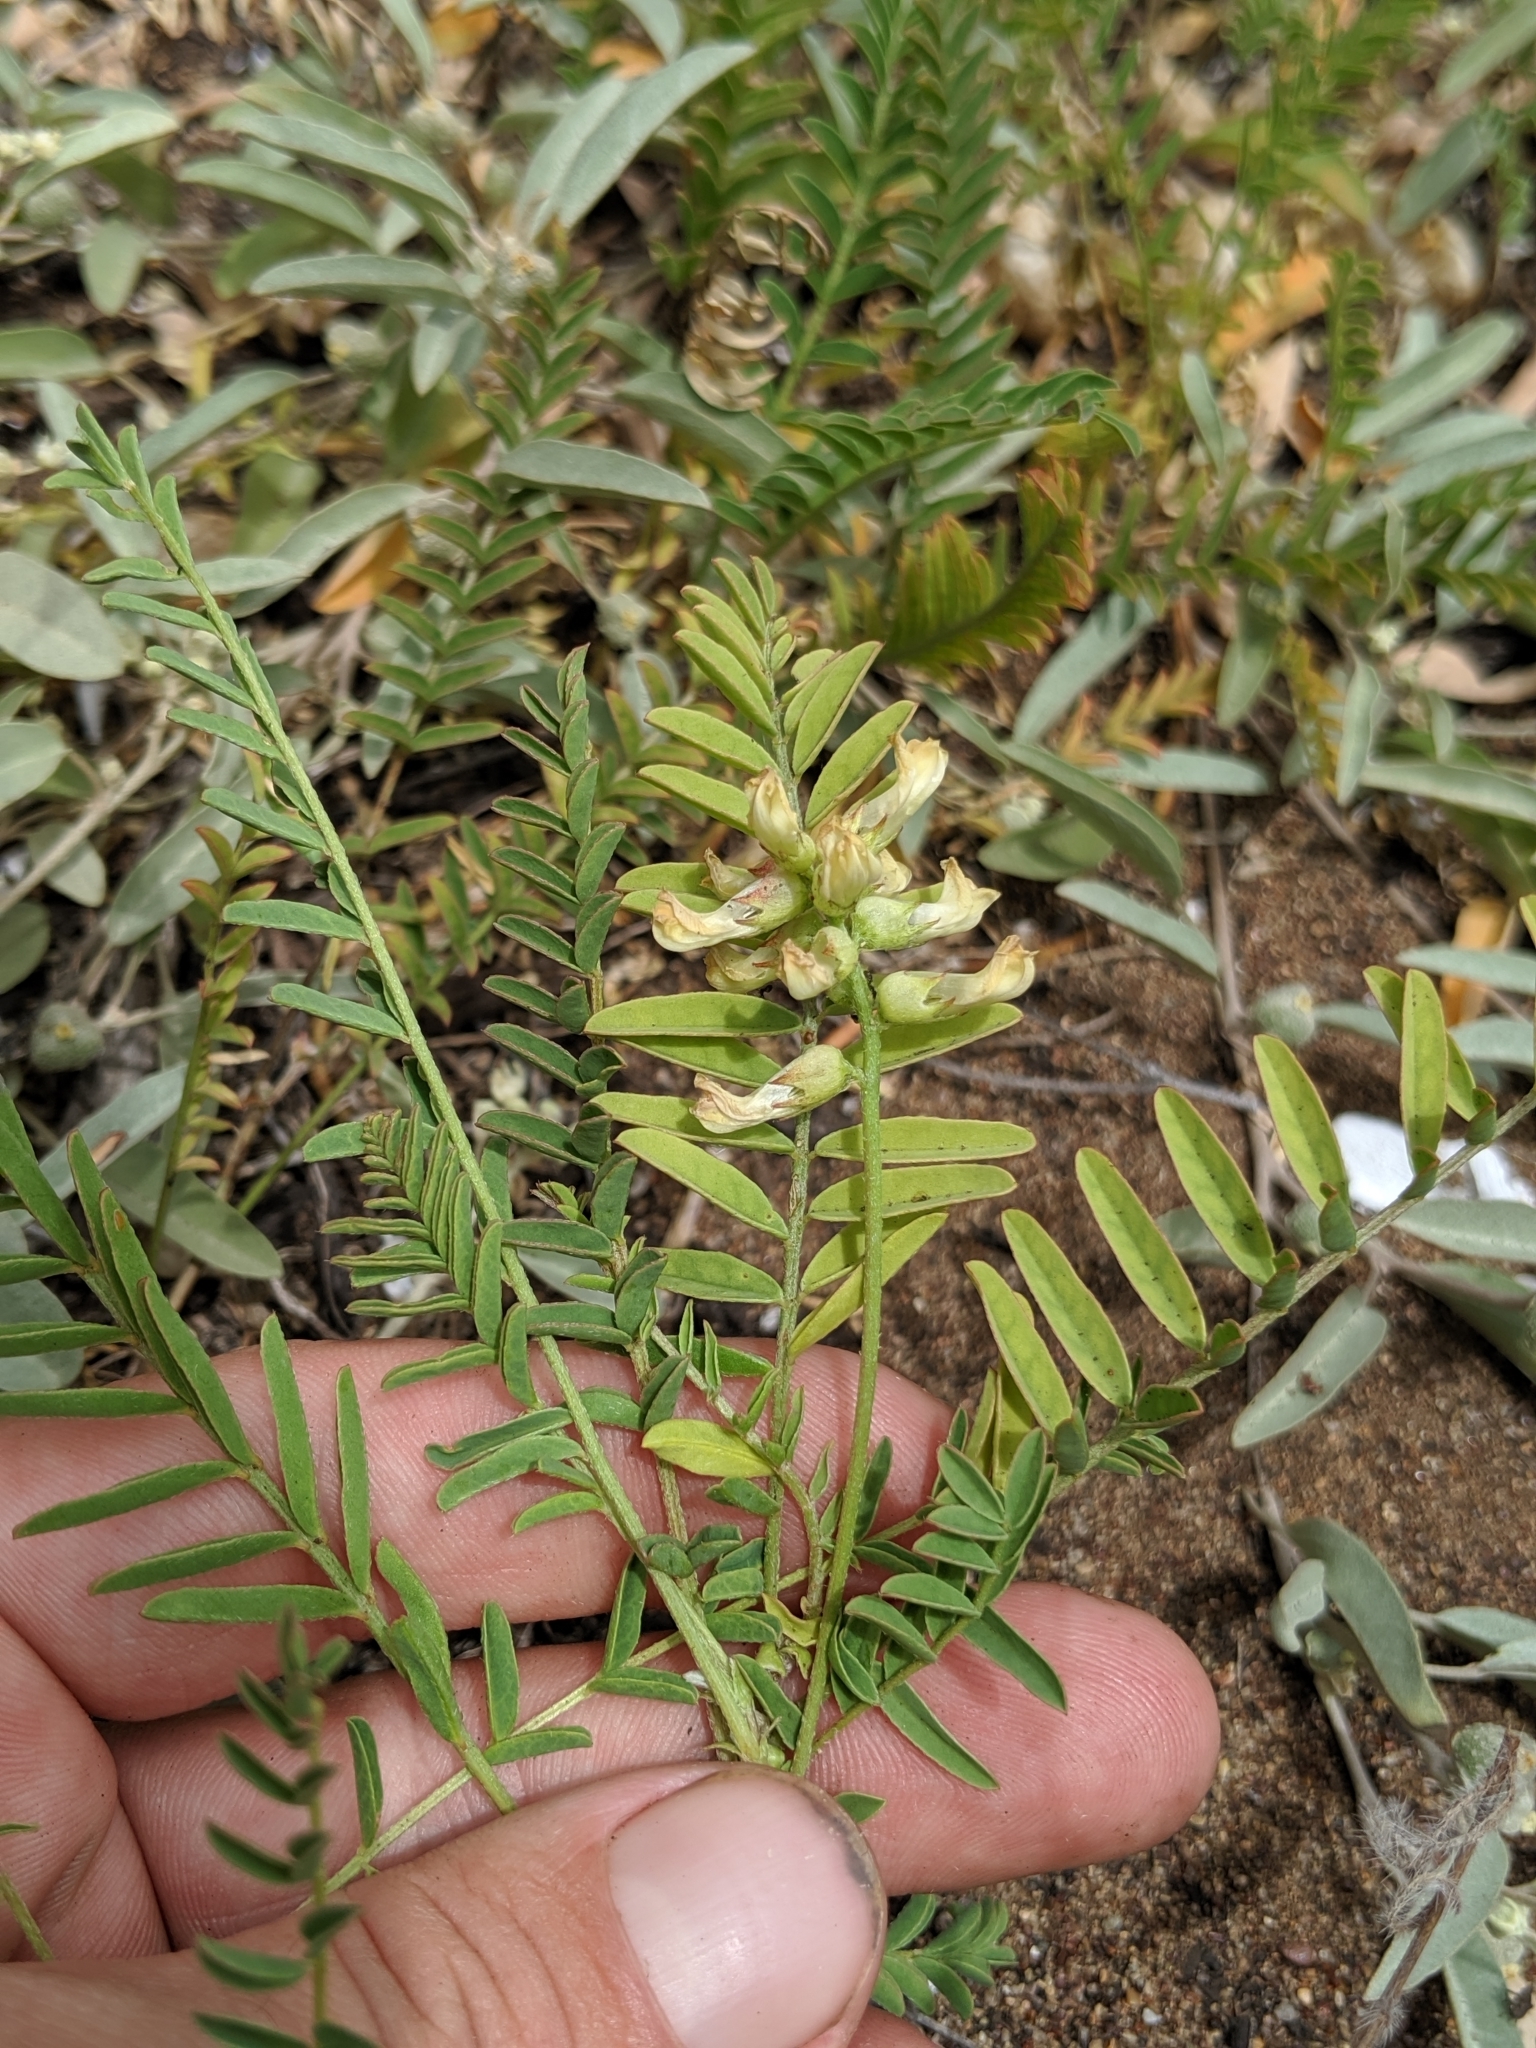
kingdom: Plantae
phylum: Tracheophyta
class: Magnoliopsida
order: Fabales
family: Fabaceae
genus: Astragalus
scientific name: Astragalus pomonensis
